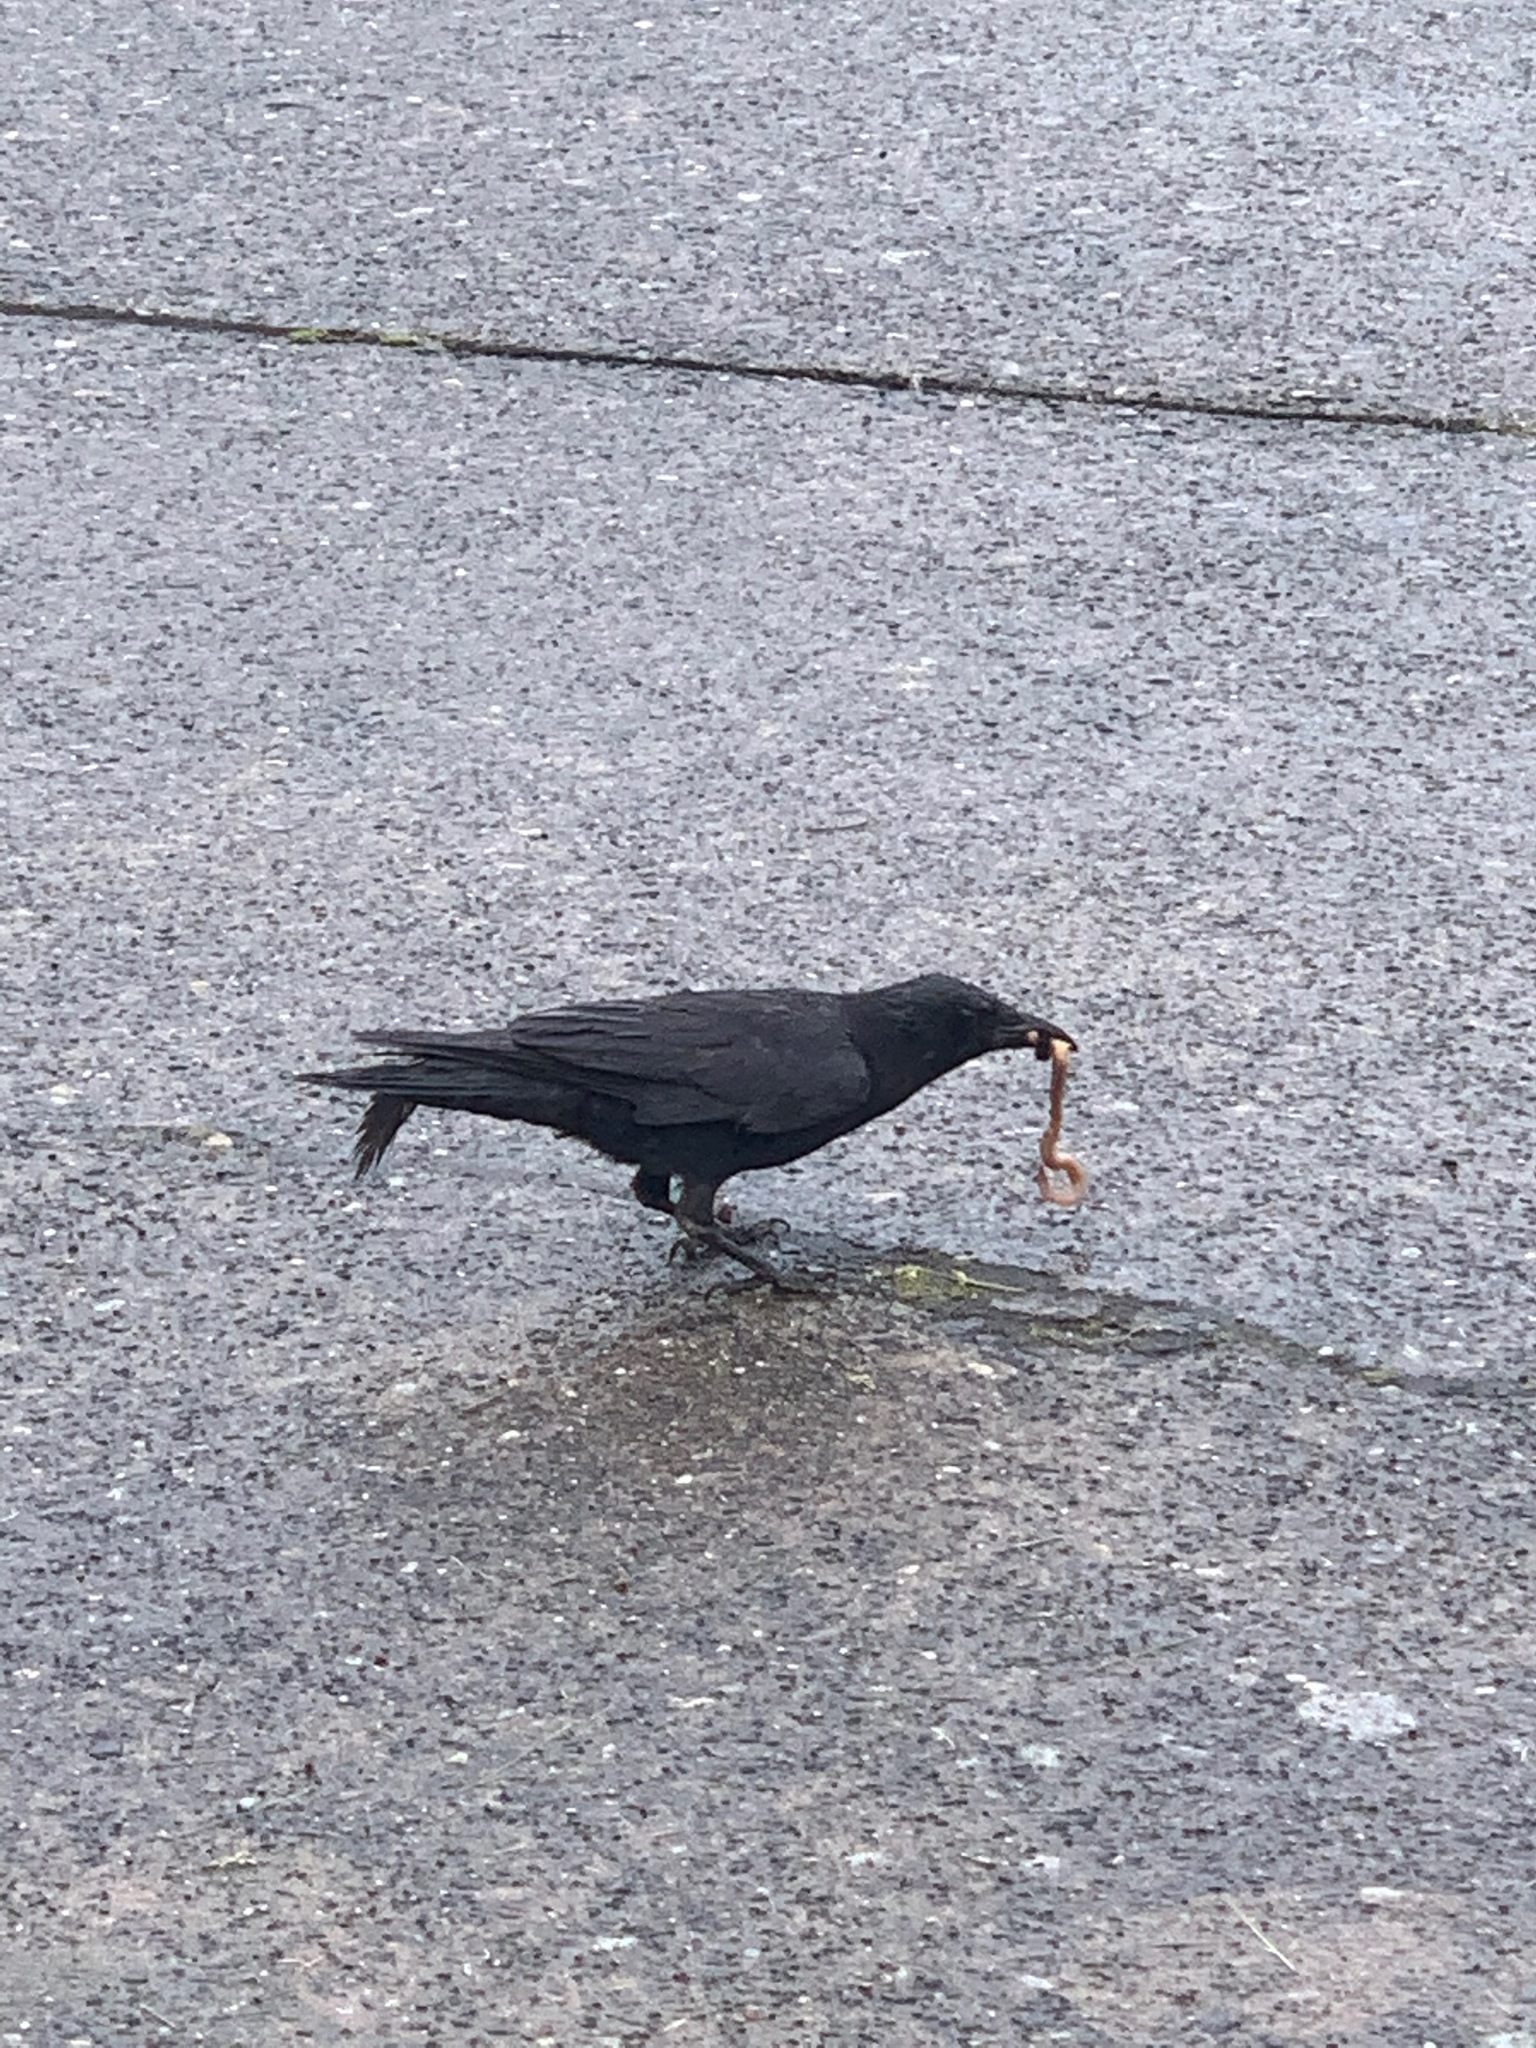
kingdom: Animalia
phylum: Chordata
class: Aves
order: Passeriformes
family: Corvidae
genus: Corvus
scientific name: Corvus brachyrhynchos
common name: American crow
